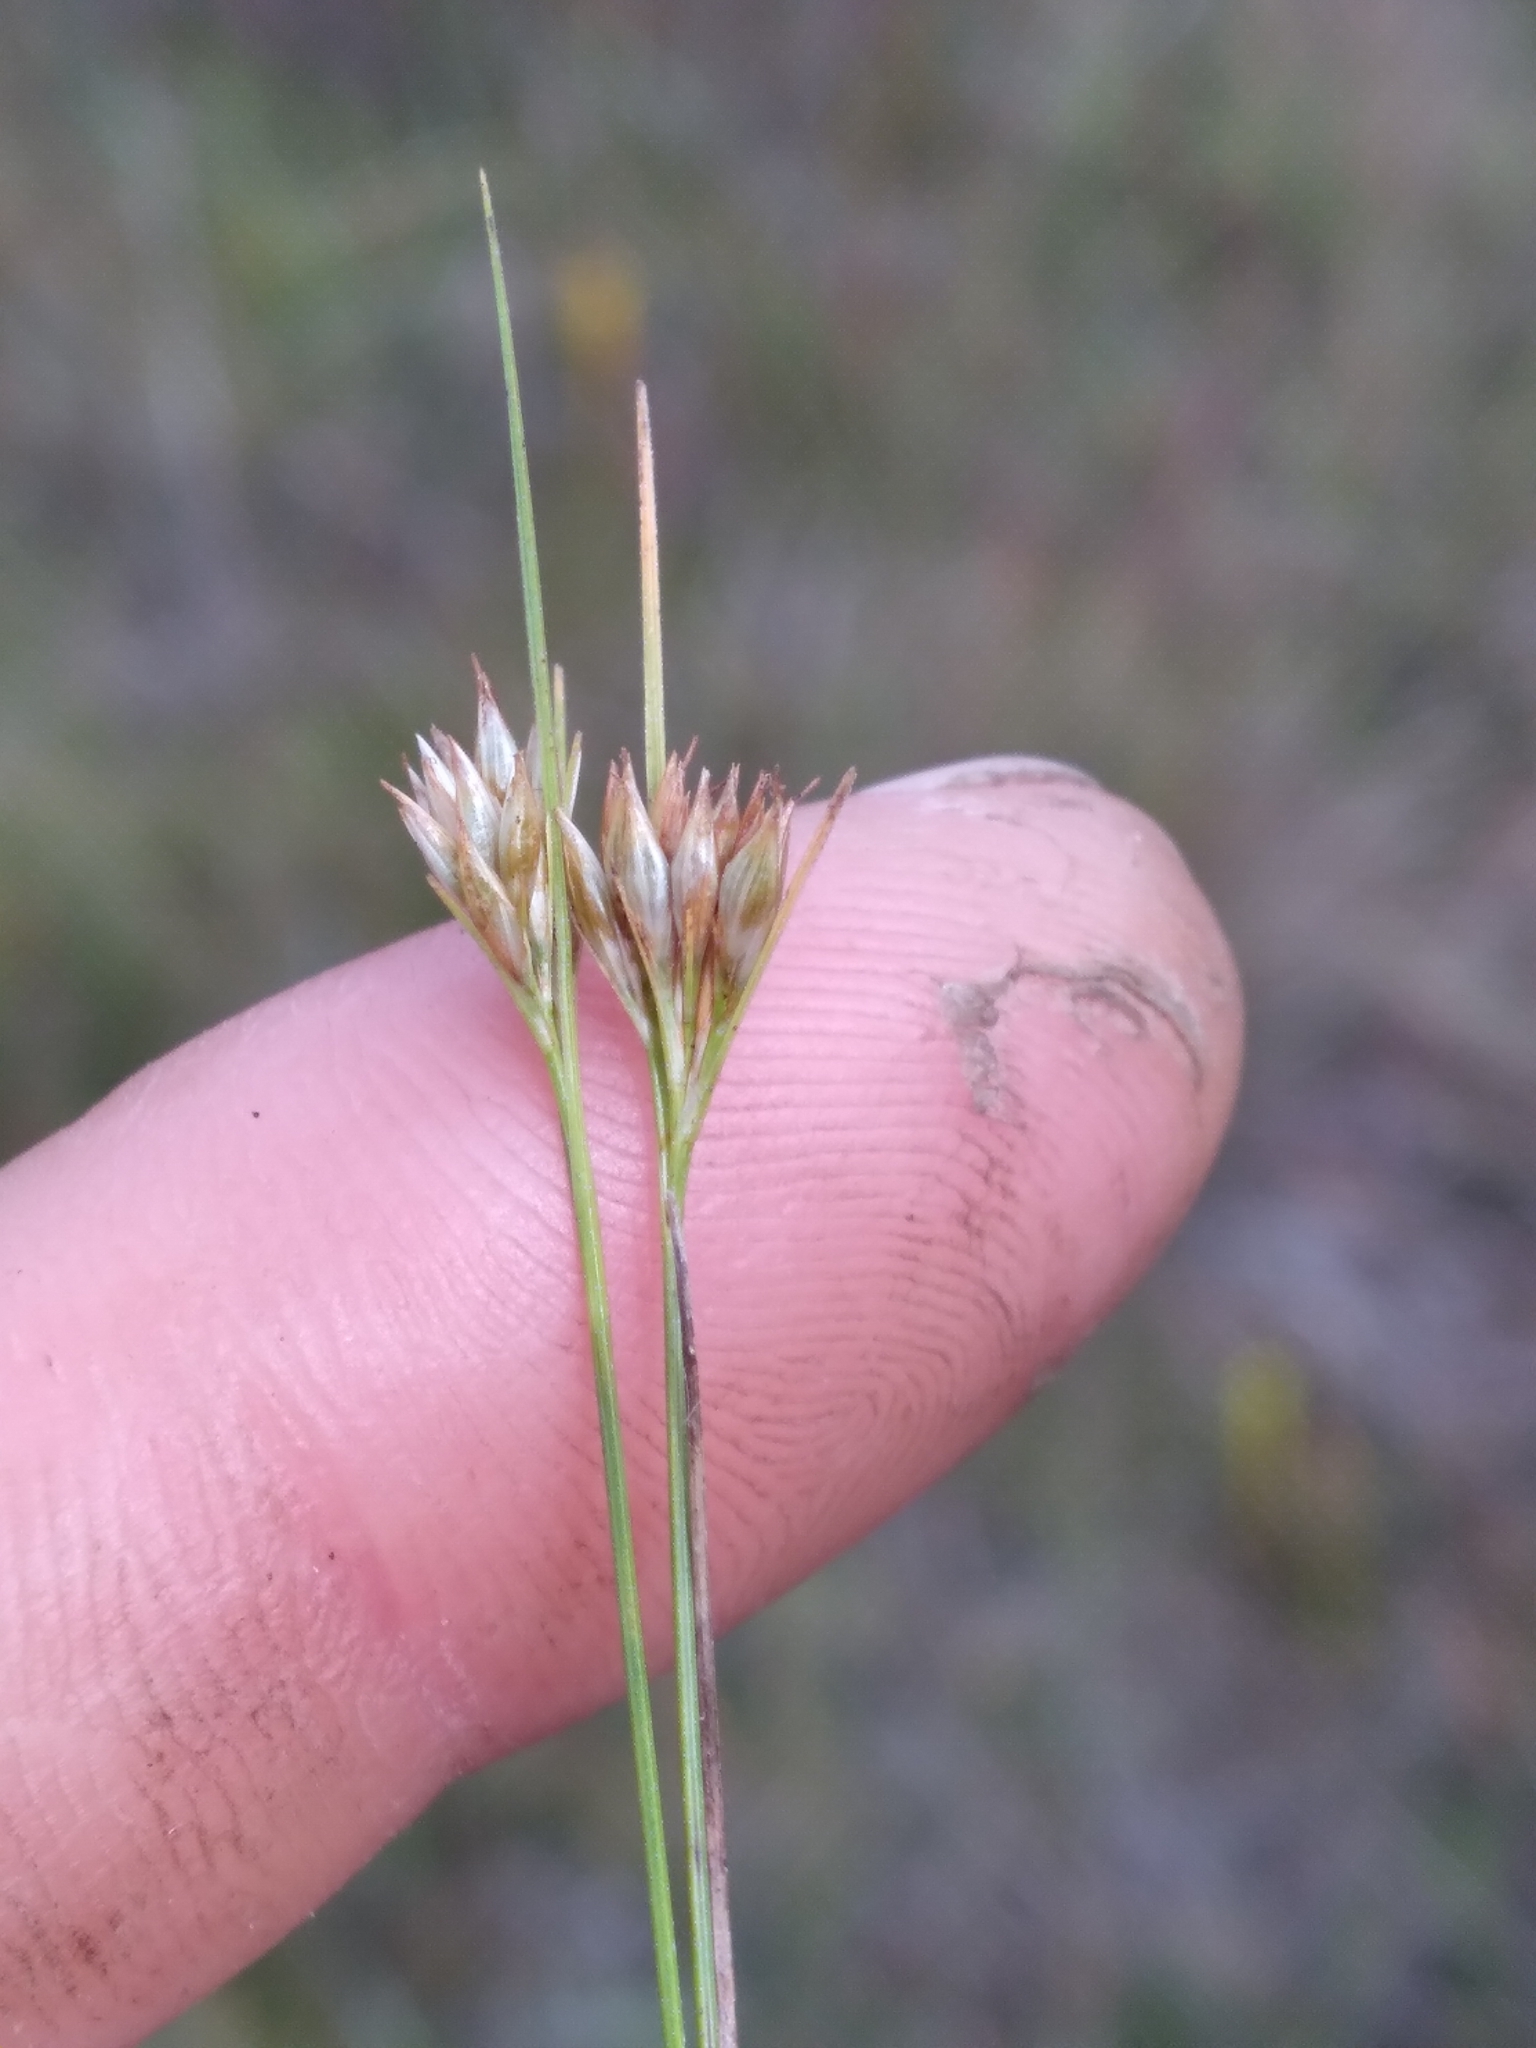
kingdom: Plantae
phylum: Tracheophyta
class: Liliopsida
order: Poales
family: Cyperaceae
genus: Rhynchospora
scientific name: Rhynchospora macra
